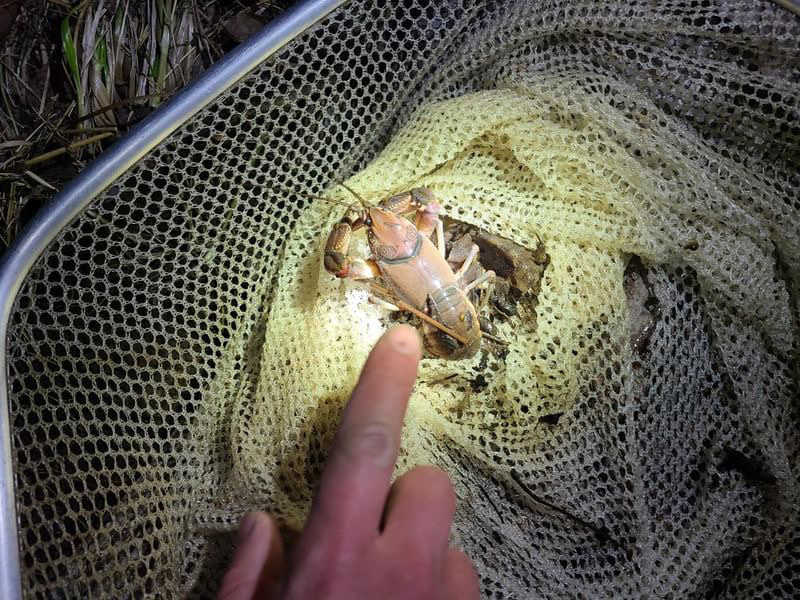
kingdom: Animalia
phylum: Arthropoda
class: Malacostraca
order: Decapoda
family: Cambaridae
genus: Cambarus
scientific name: Cambarus robustus
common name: Big water crayfish
